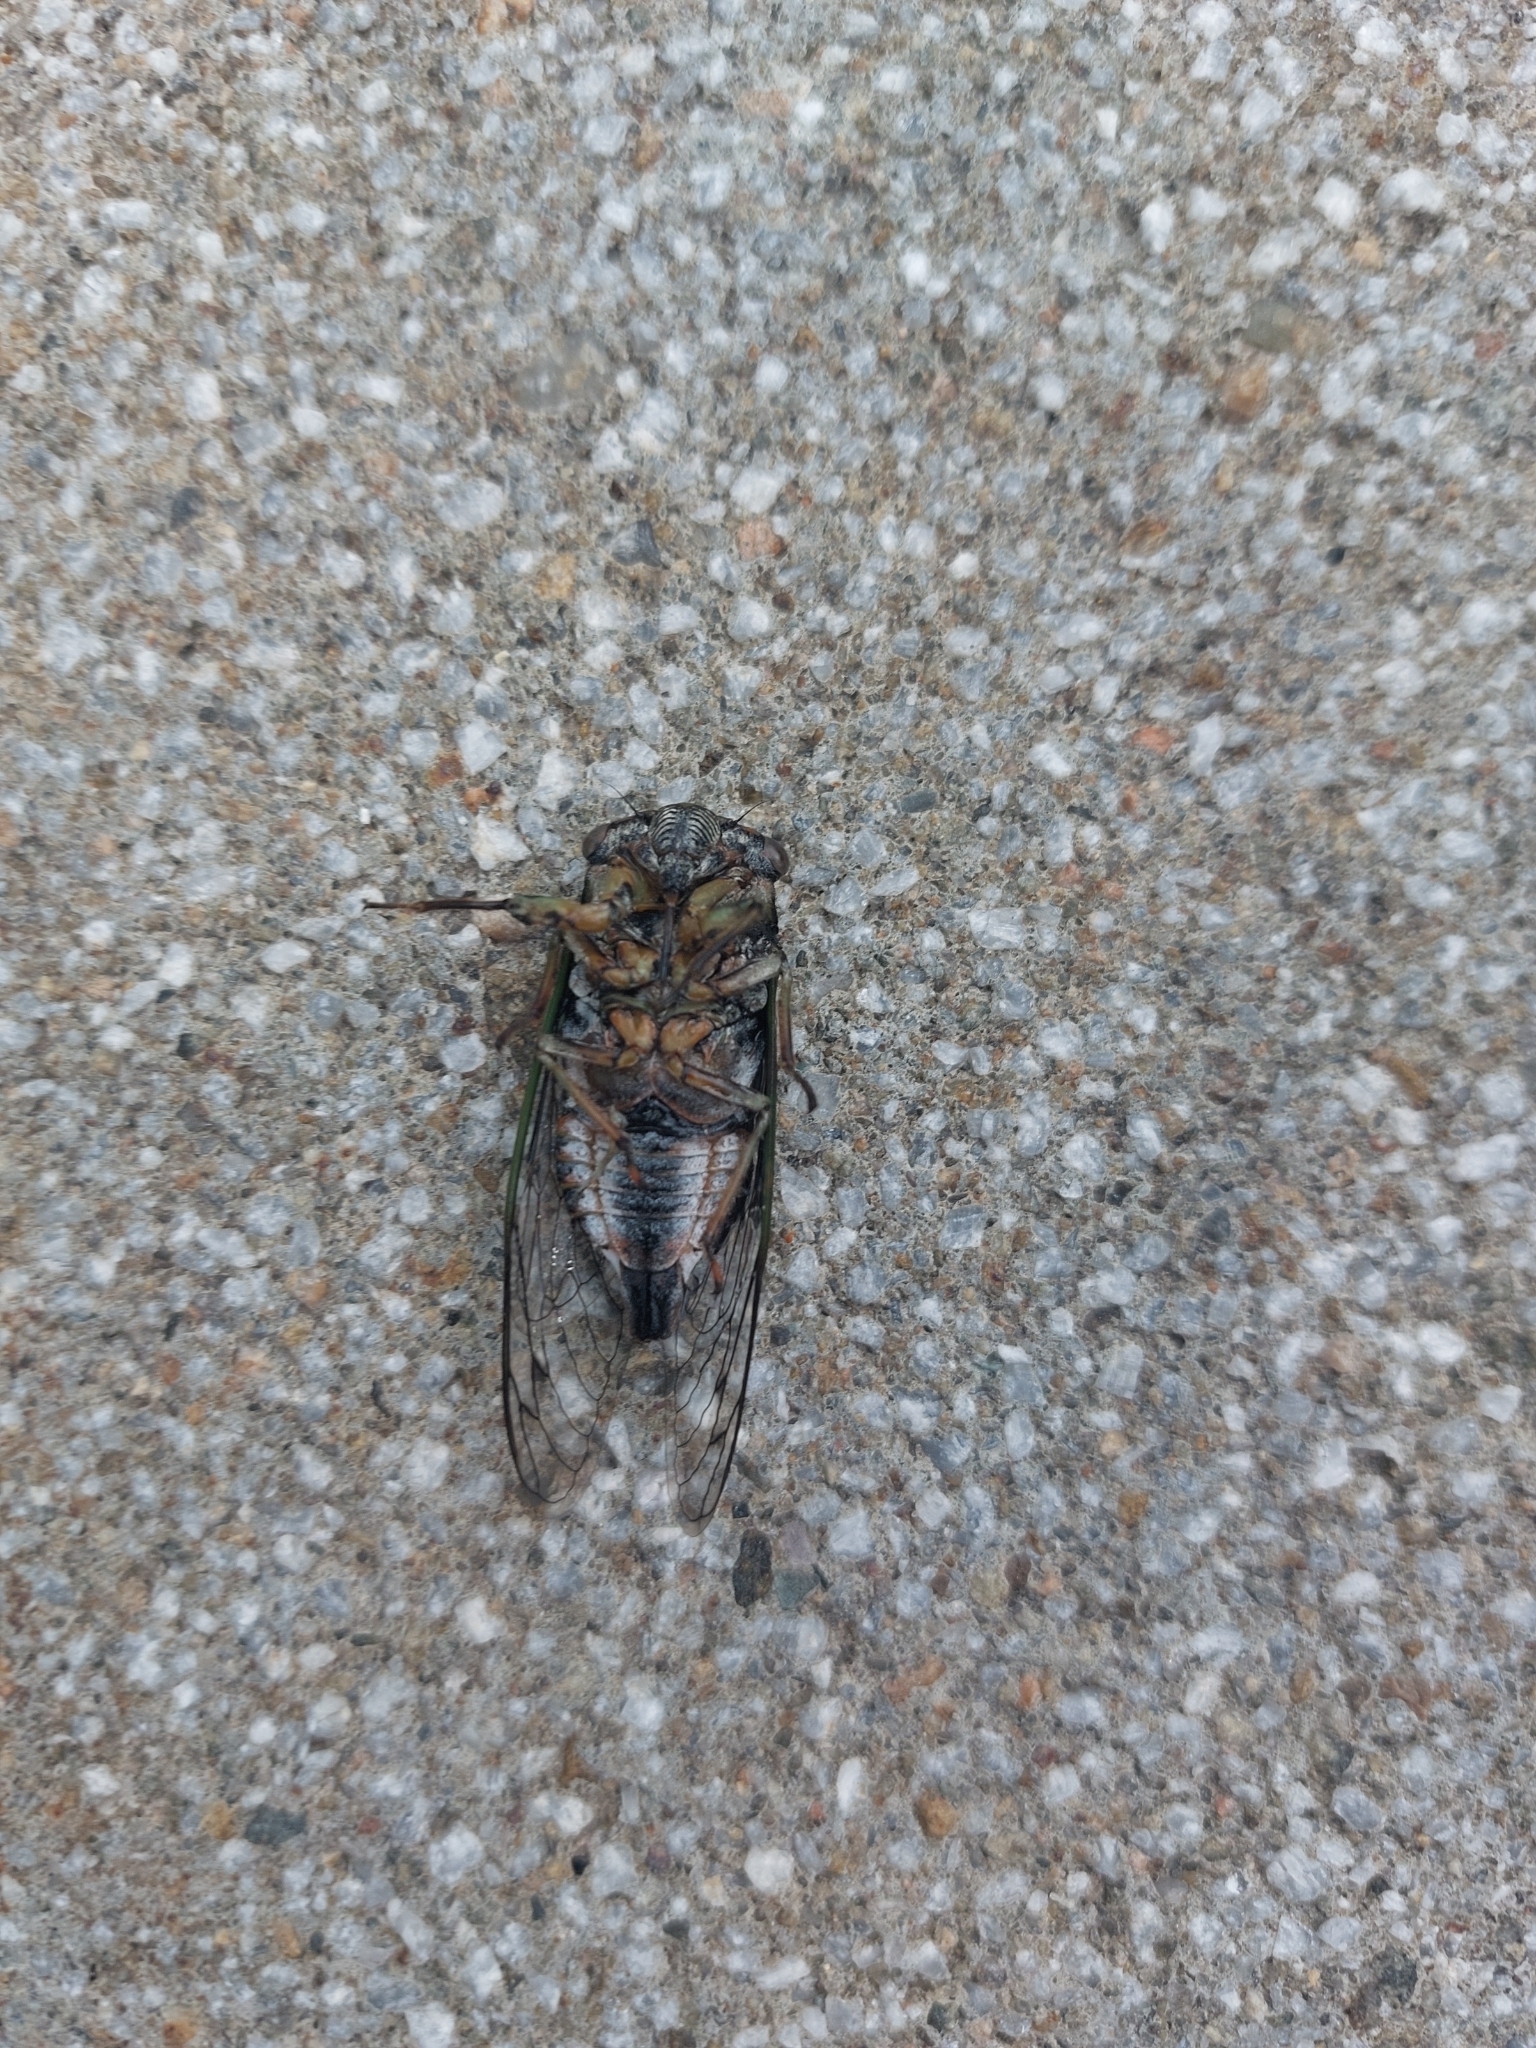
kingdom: Animalia
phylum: Arthropoda
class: Insecta
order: Hemiptera
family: Cicadidae
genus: Neotibicen
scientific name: Neotibicen canicularis
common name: God-day cicada
